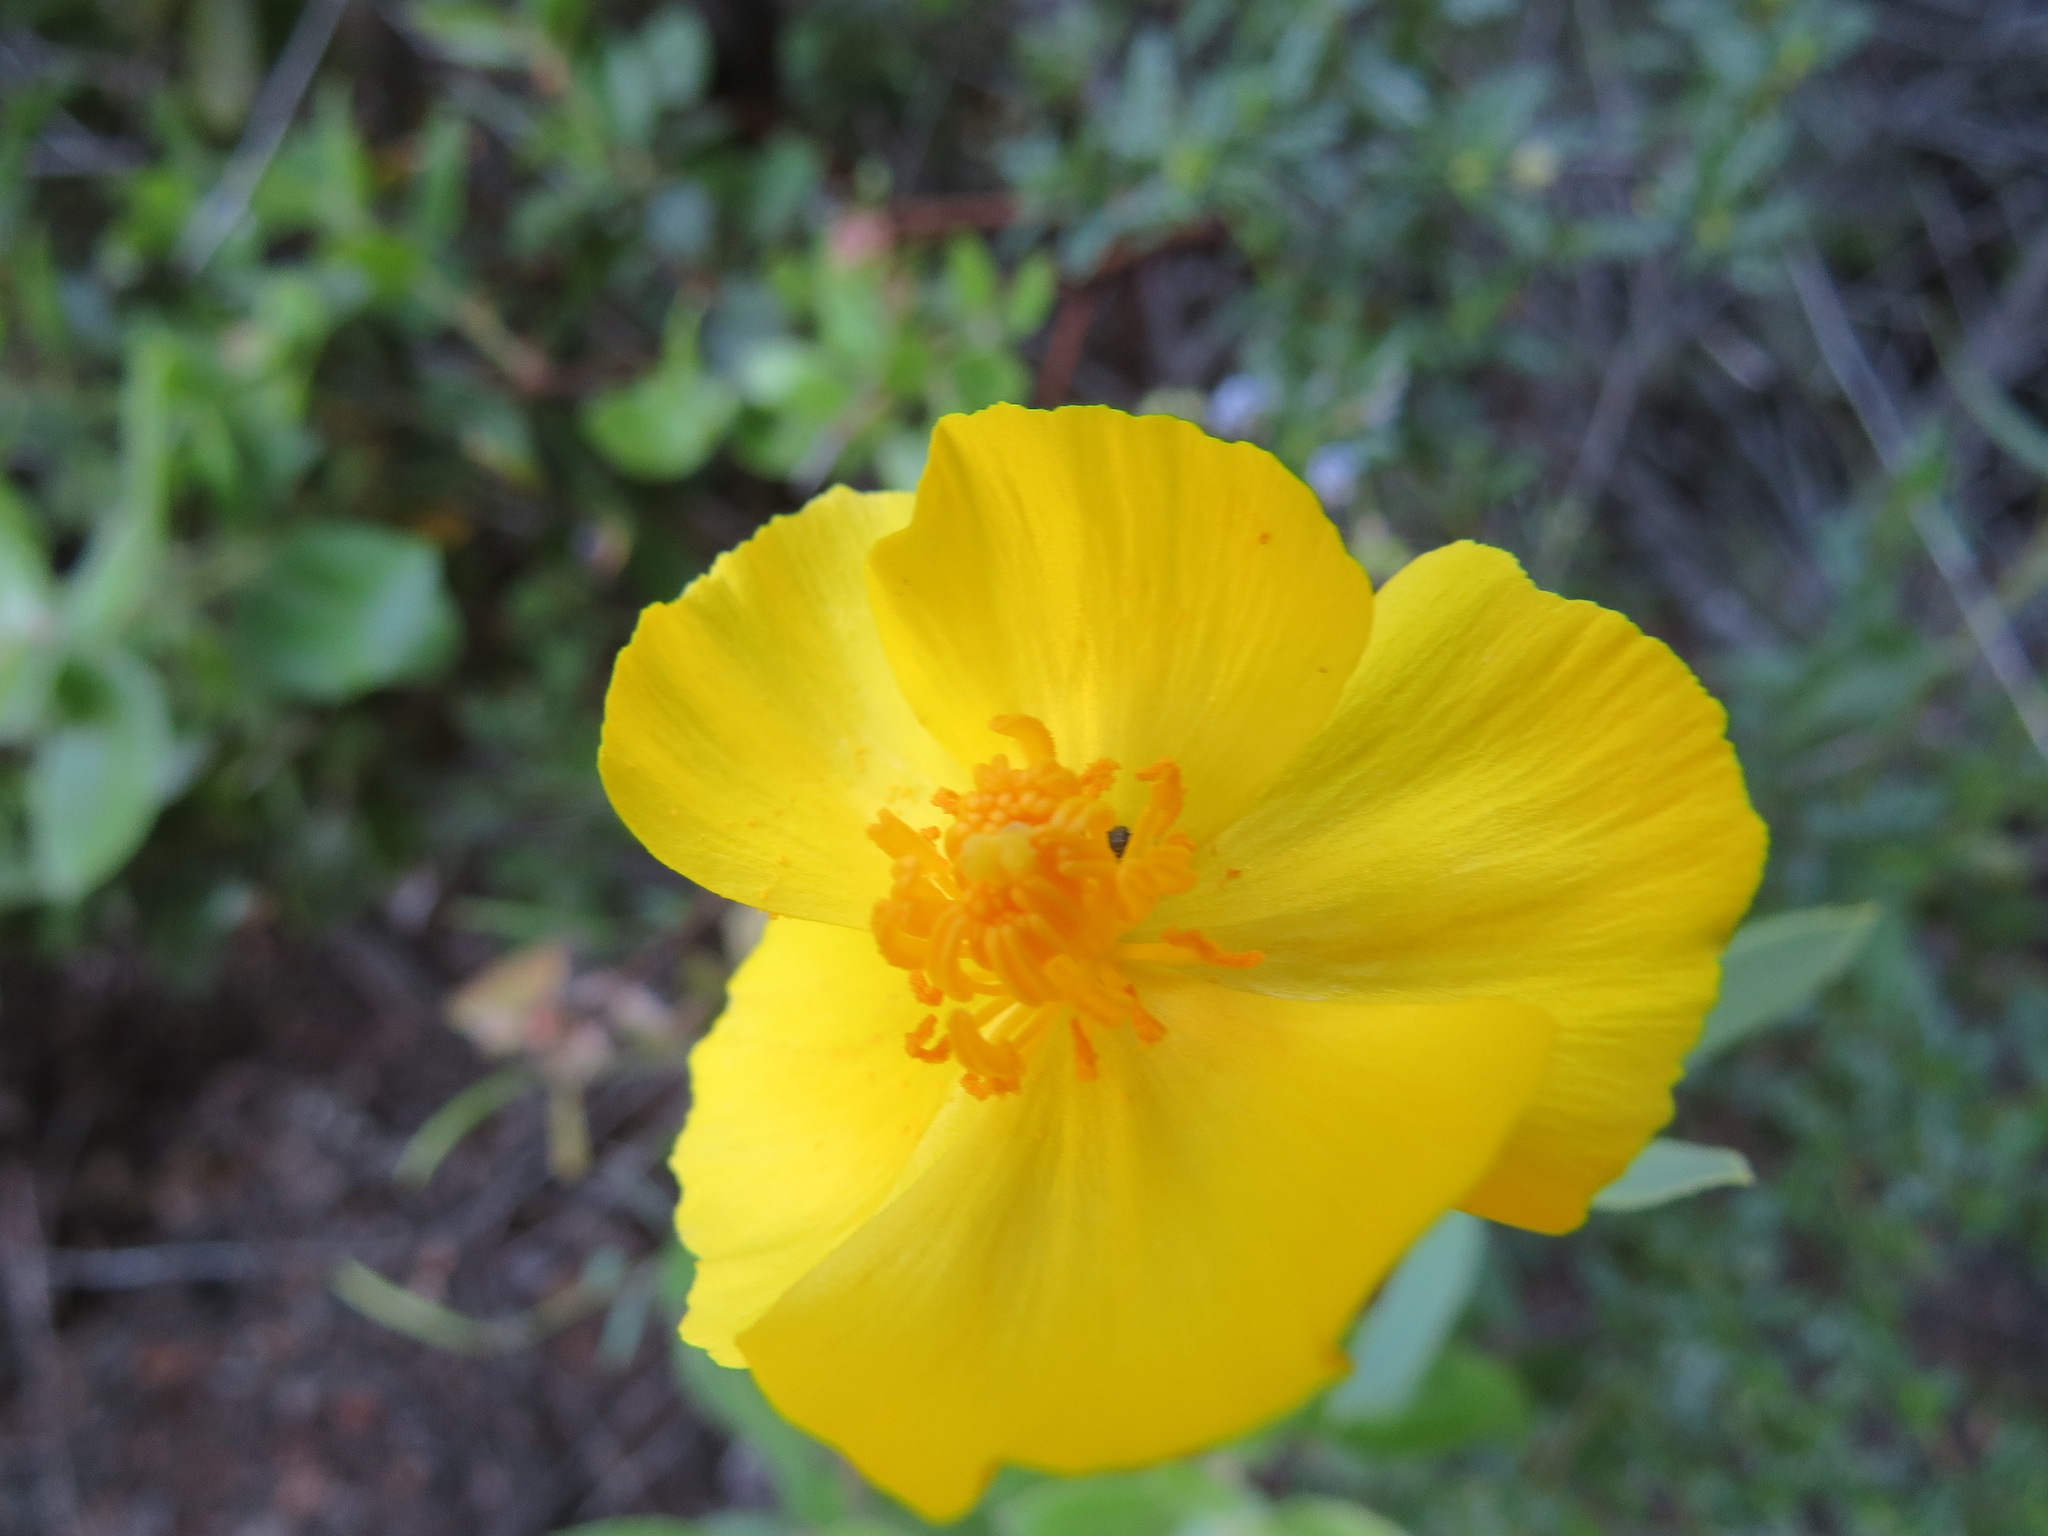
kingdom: Plantae
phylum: Tracheophyta
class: Magnoliopsida
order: Ranunculales
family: Papaveraceae
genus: Dendromecon
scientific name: Dendromecon rigida
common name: Tree poppy
